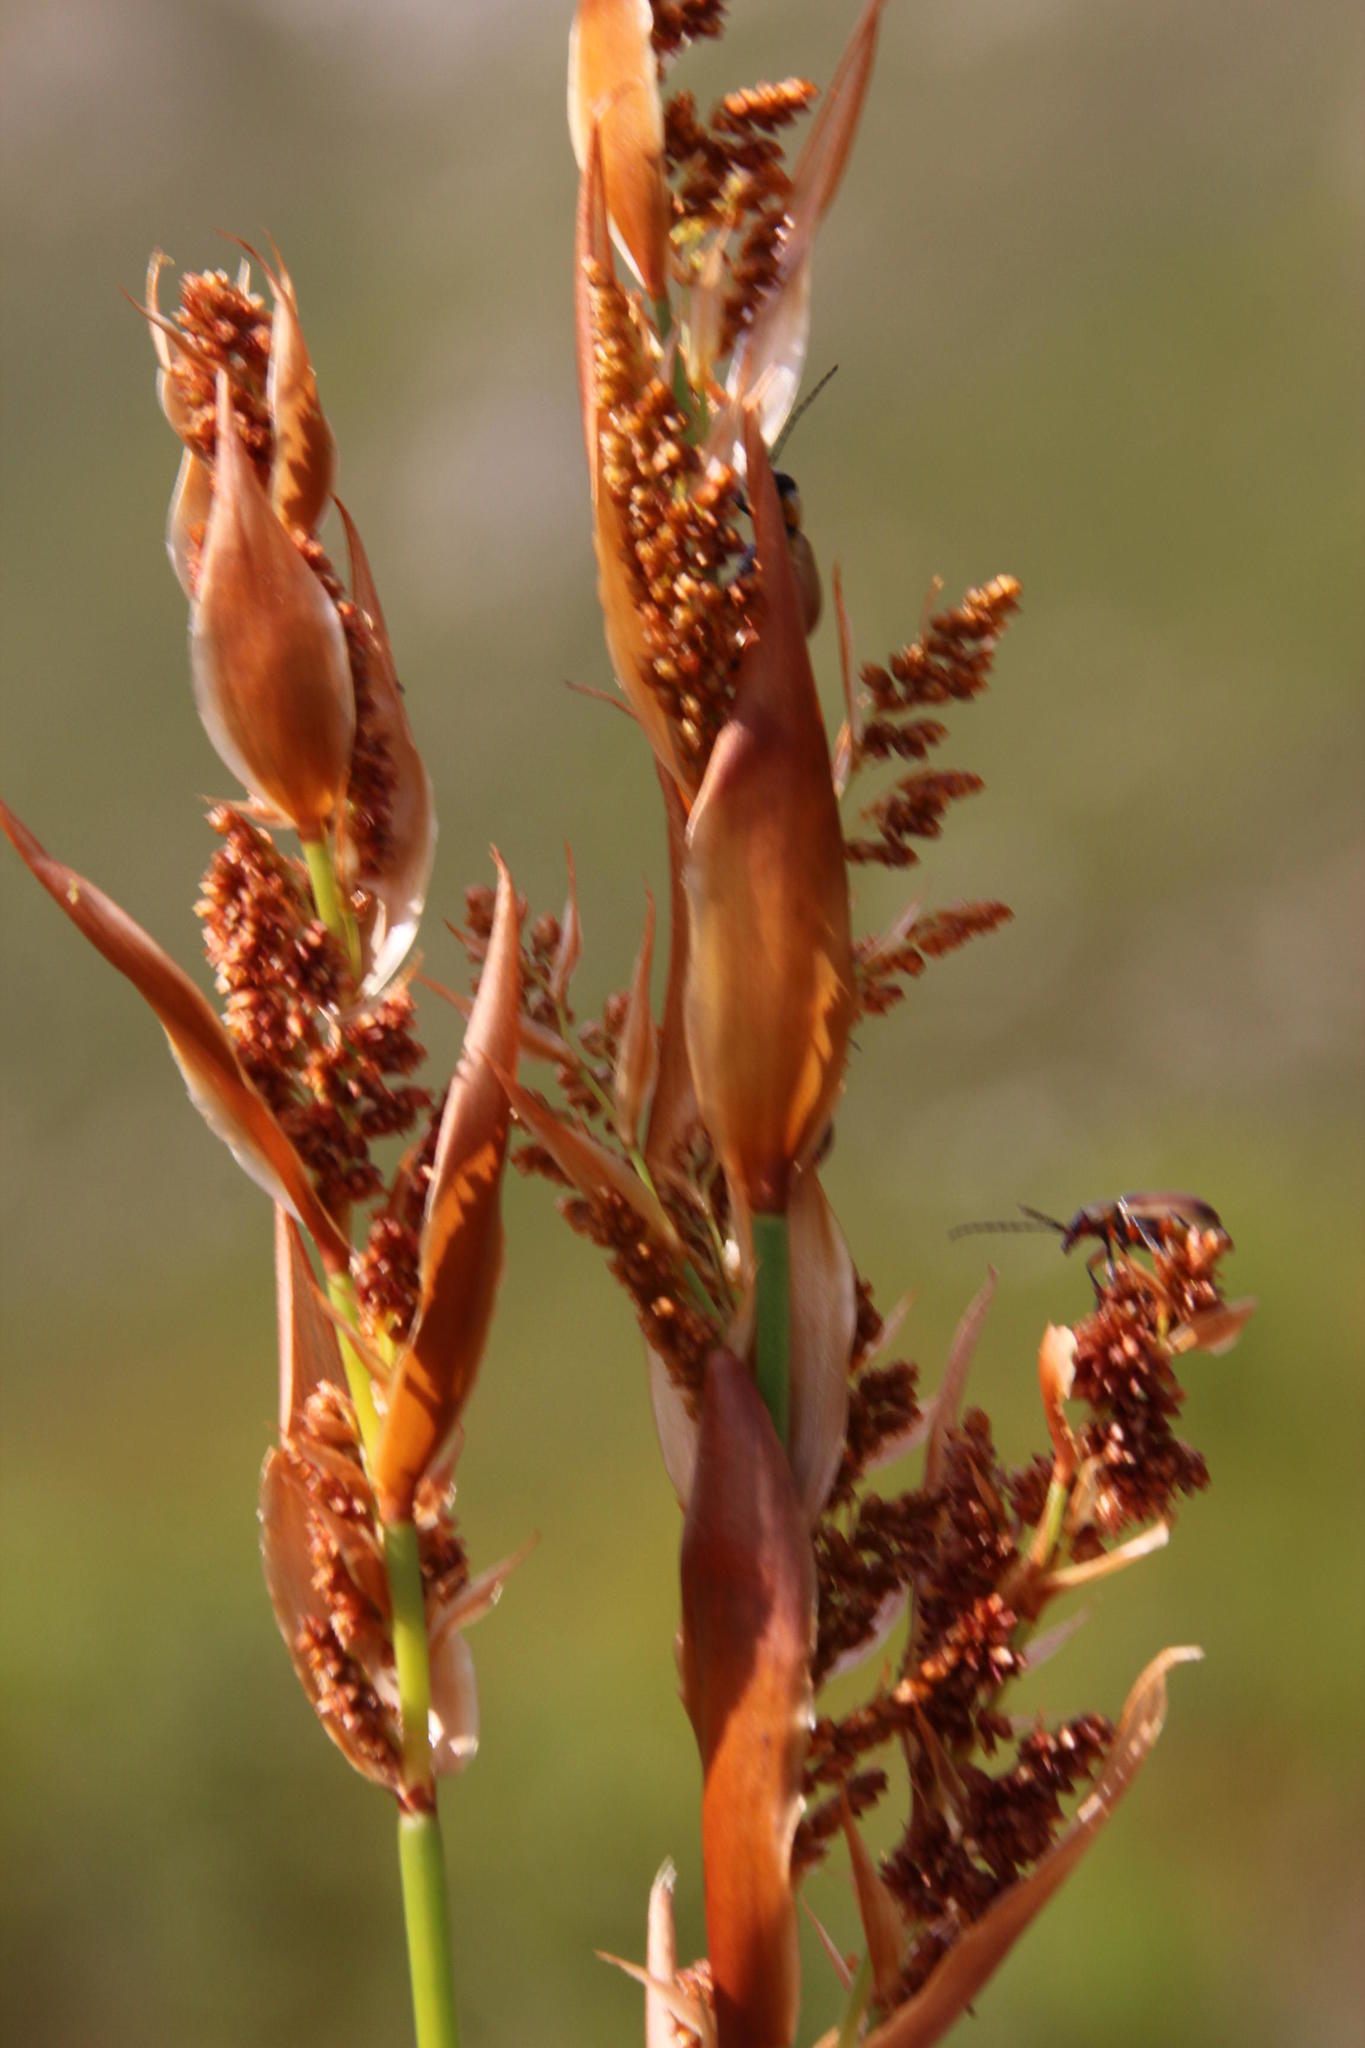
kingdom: Plantae
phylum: Tracheophyta
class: Liliopsida
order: Poales
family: Restionaceae
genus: Elegia
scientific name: Elegia equisetacea
